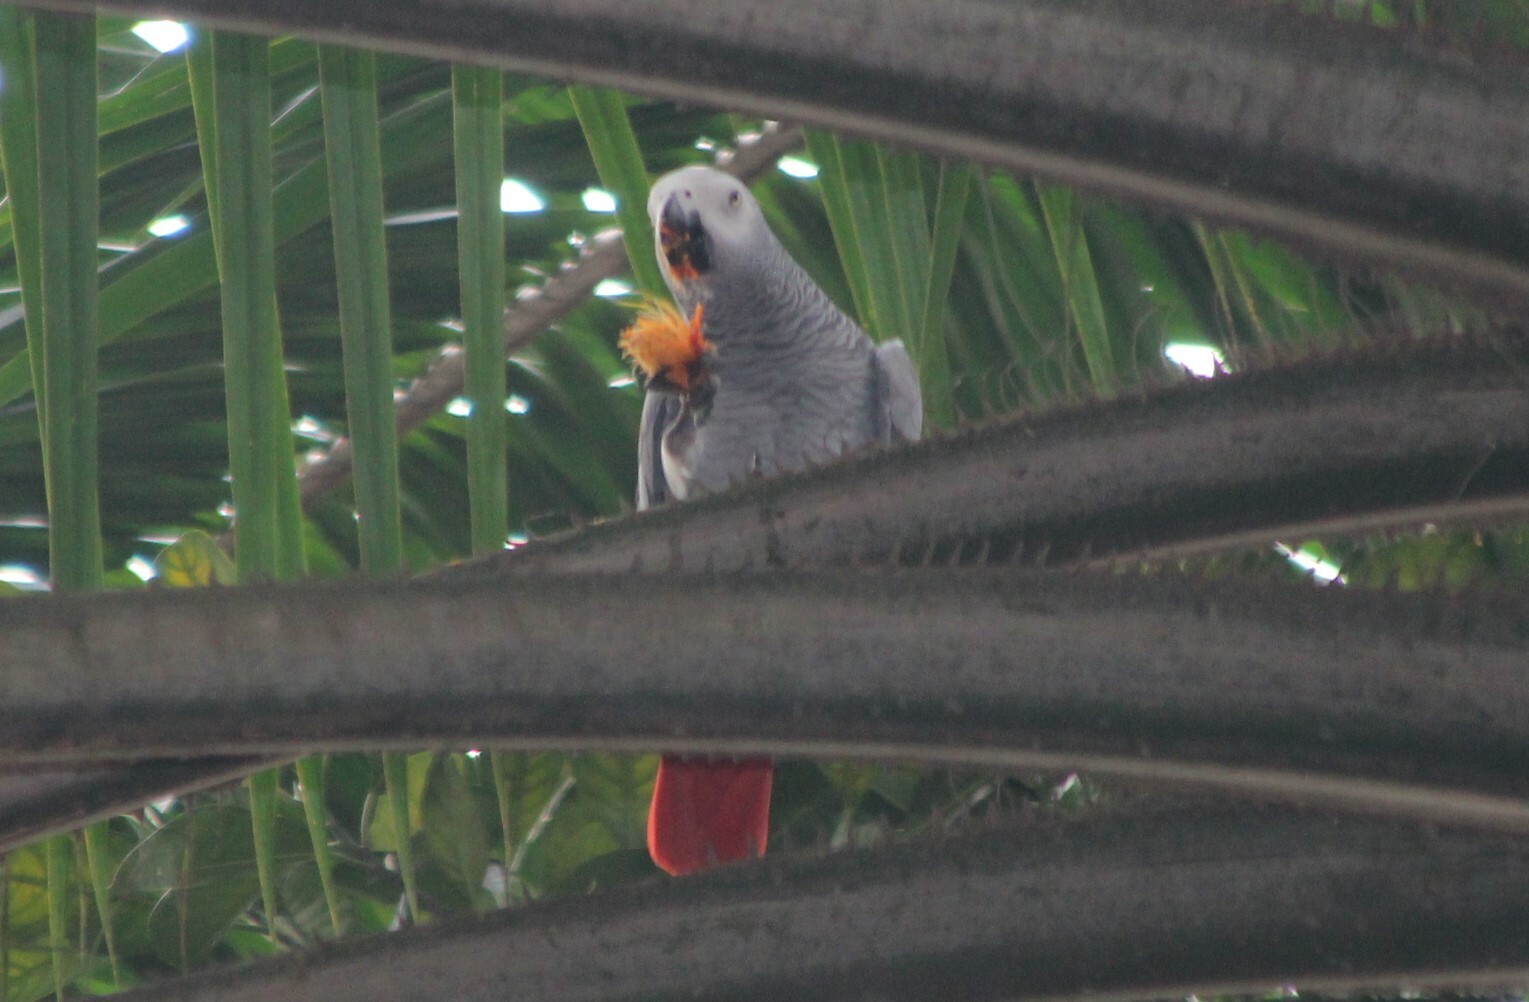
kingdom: Animalia
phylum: Chordata
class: Aves
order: Psittaciformes
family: Psittacidae
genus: Psittacus
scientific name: Psittacus erithacus
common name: Grey parrot
